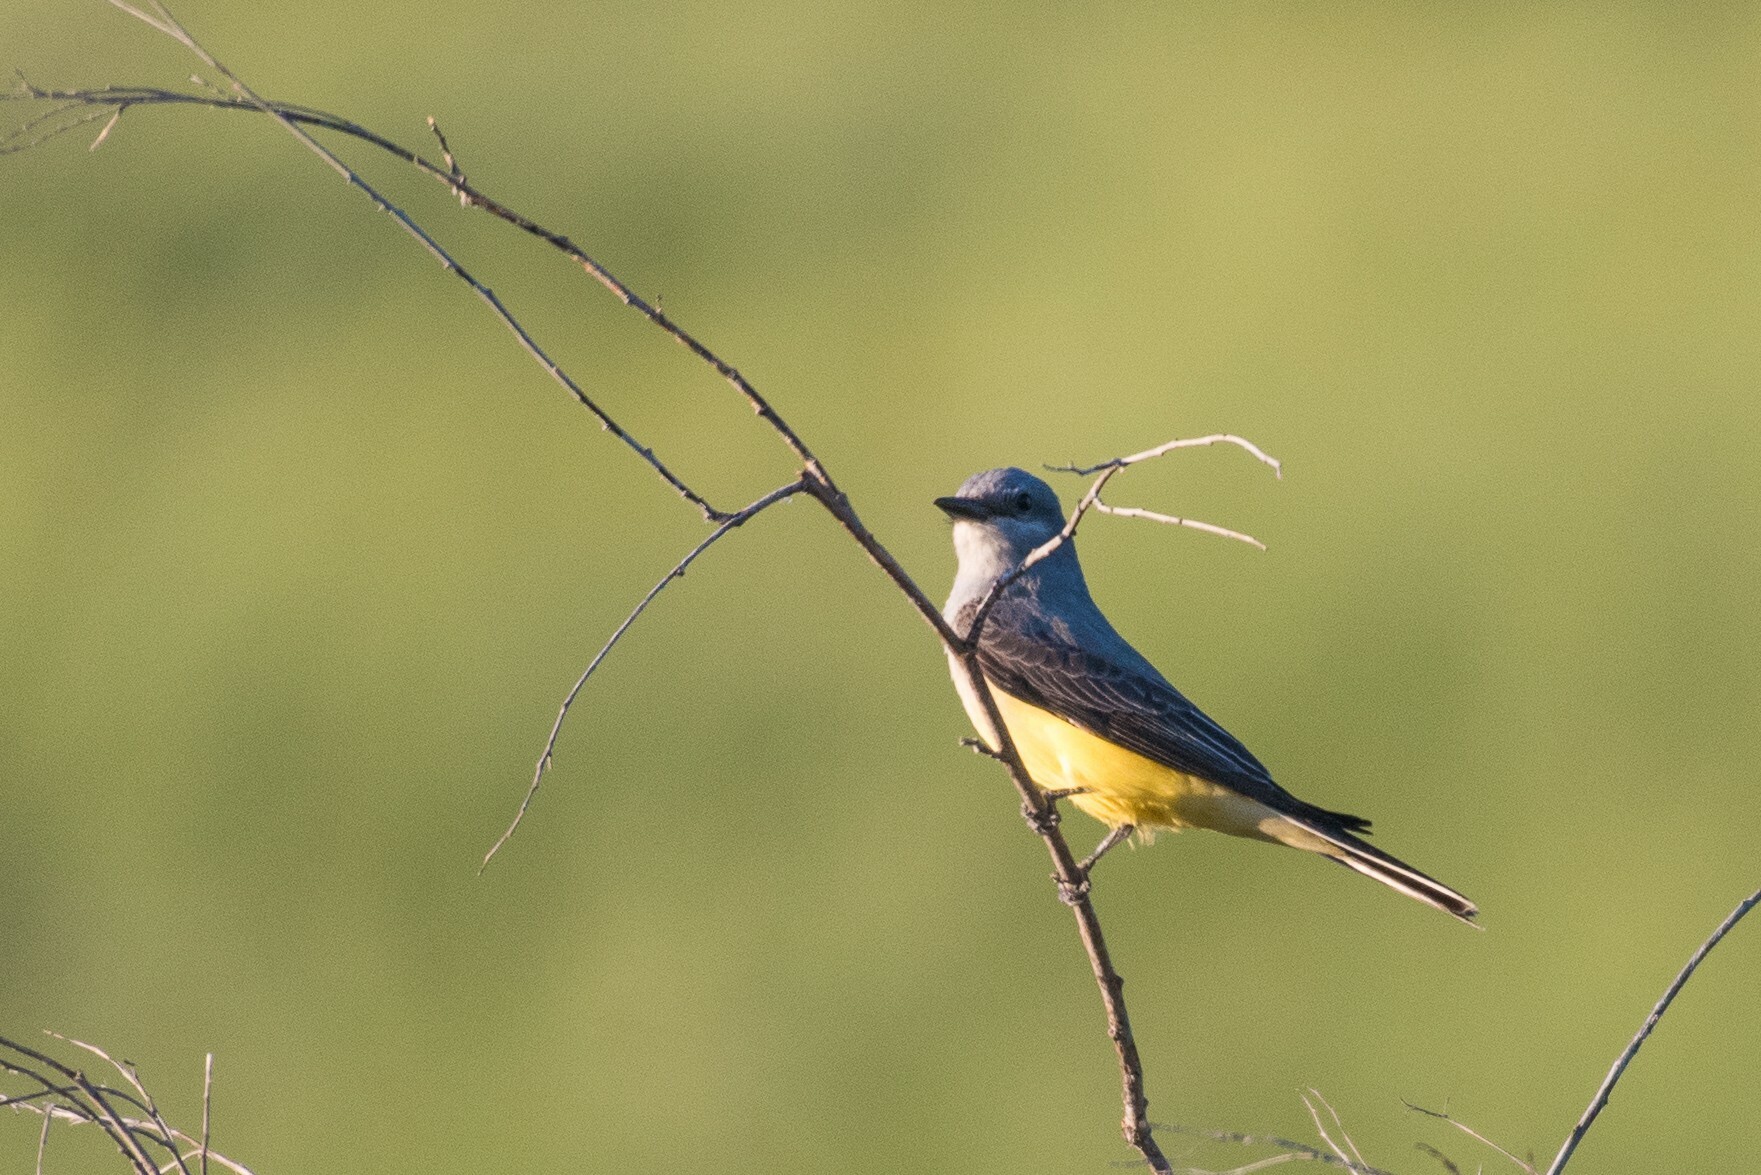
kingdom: Animalia
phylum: Chordata
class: Aves
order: Passeriformes
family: Tyrannidae
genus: Tyrannus
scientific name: Tyrannus verticalis
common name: Western kingbird
